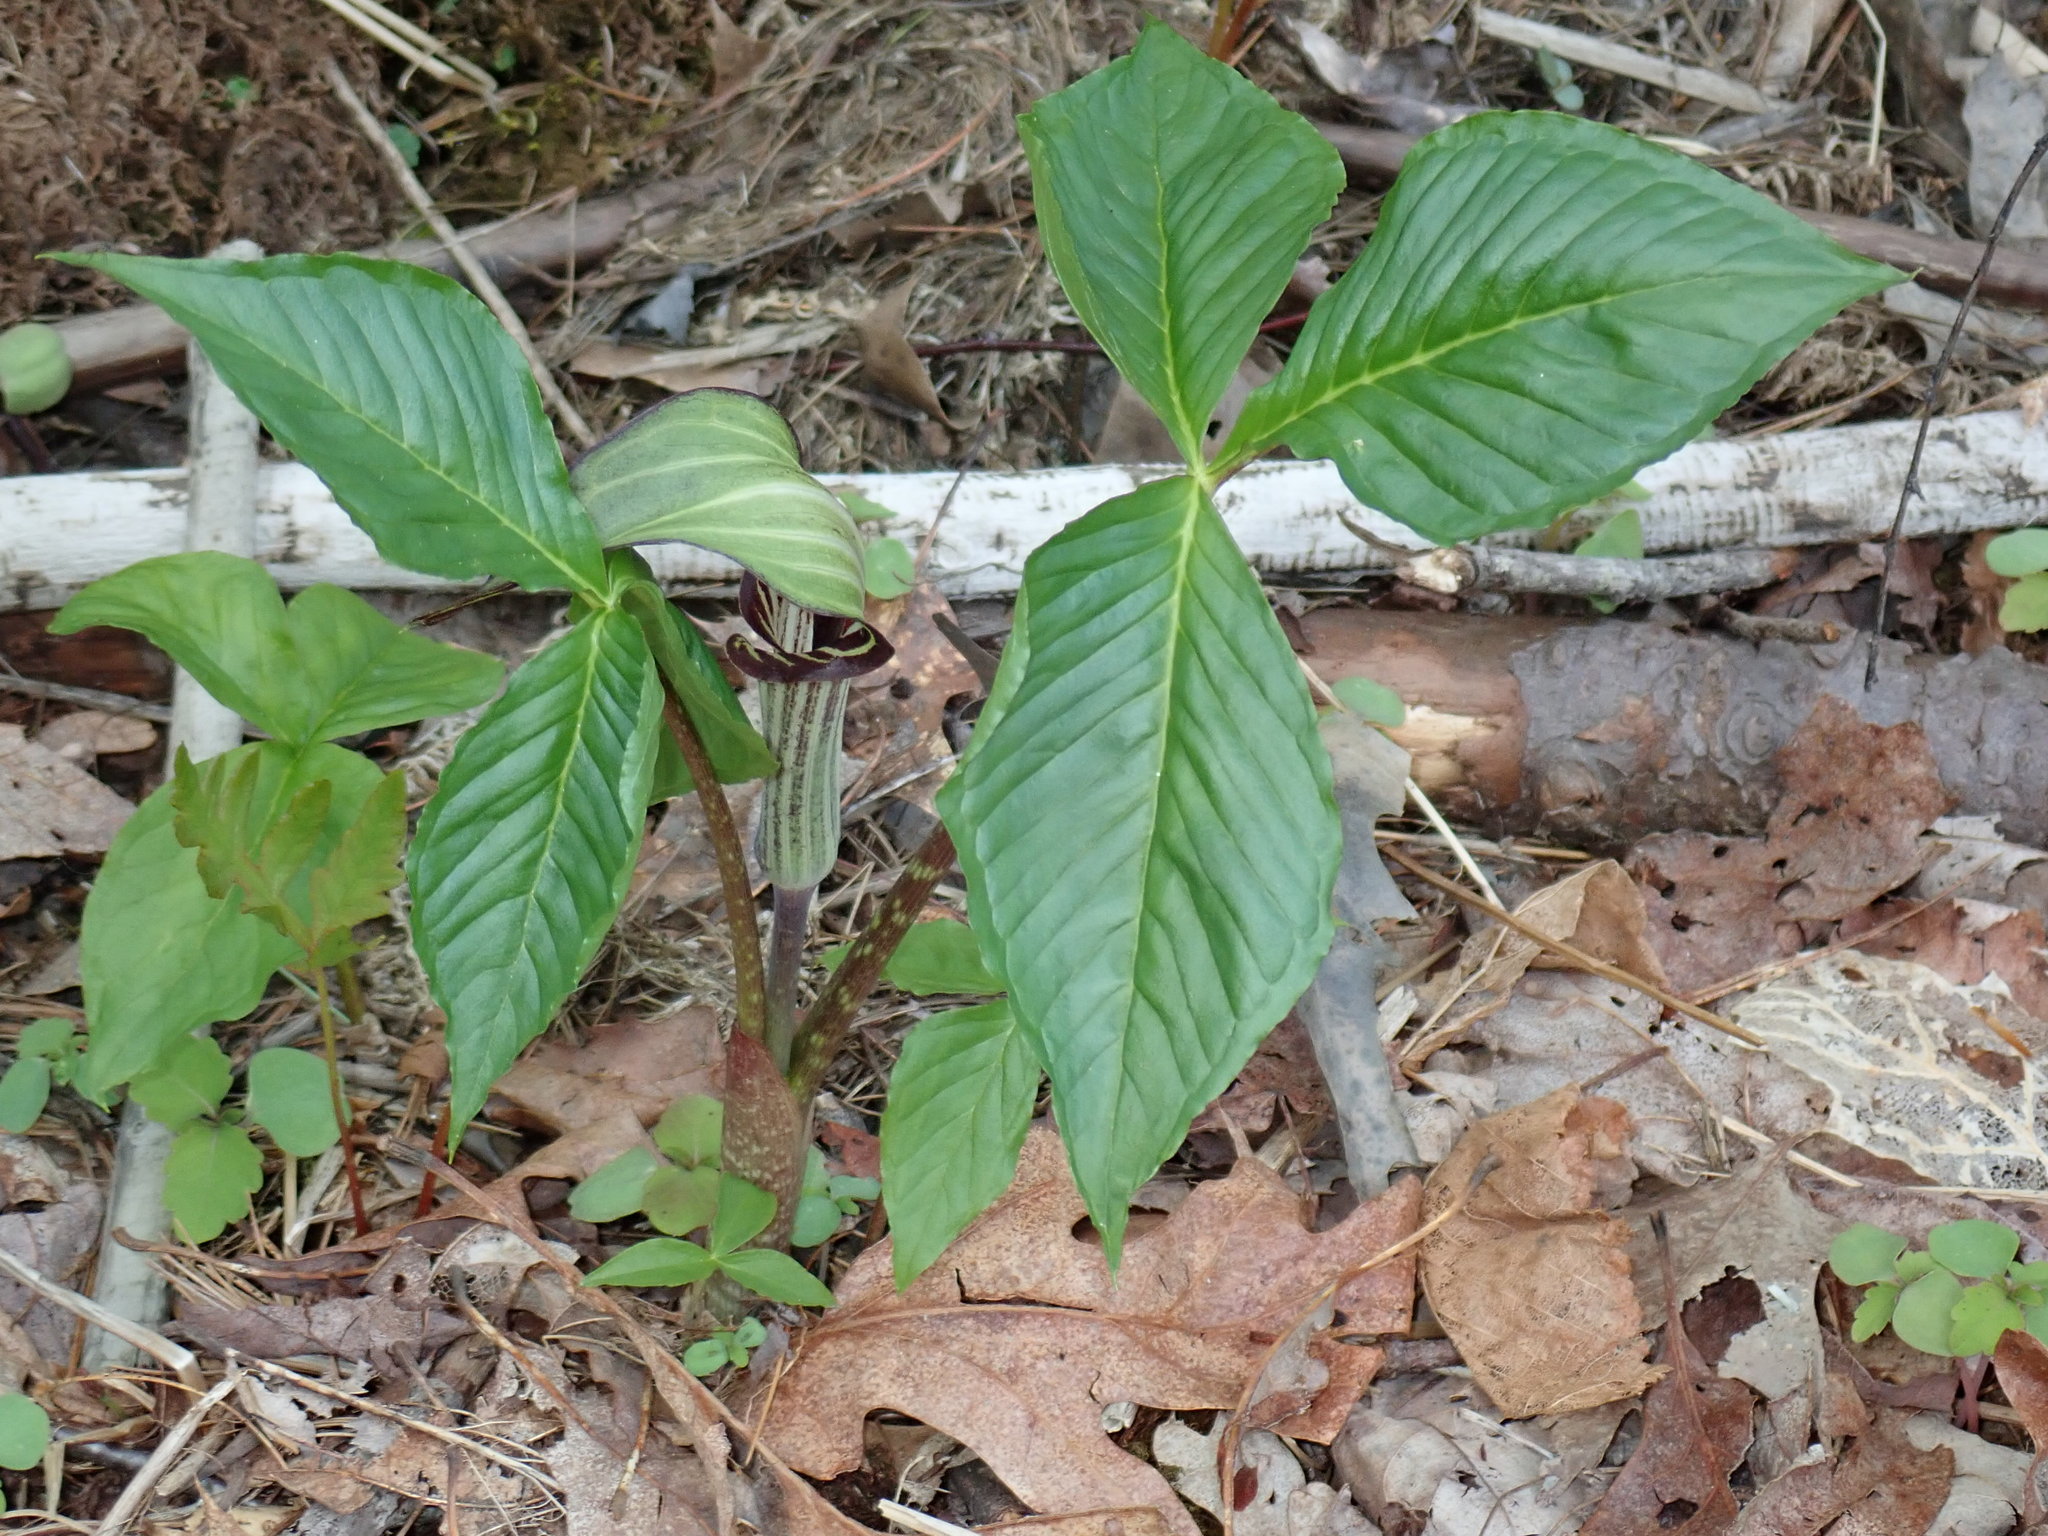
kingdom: Plantae
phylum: Tracheophyta
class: Liliopsida
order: Alismatales
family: Araceae
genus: Arisaema
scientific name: Arisaema triphyllum
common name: Jack-in-the-pulpit
